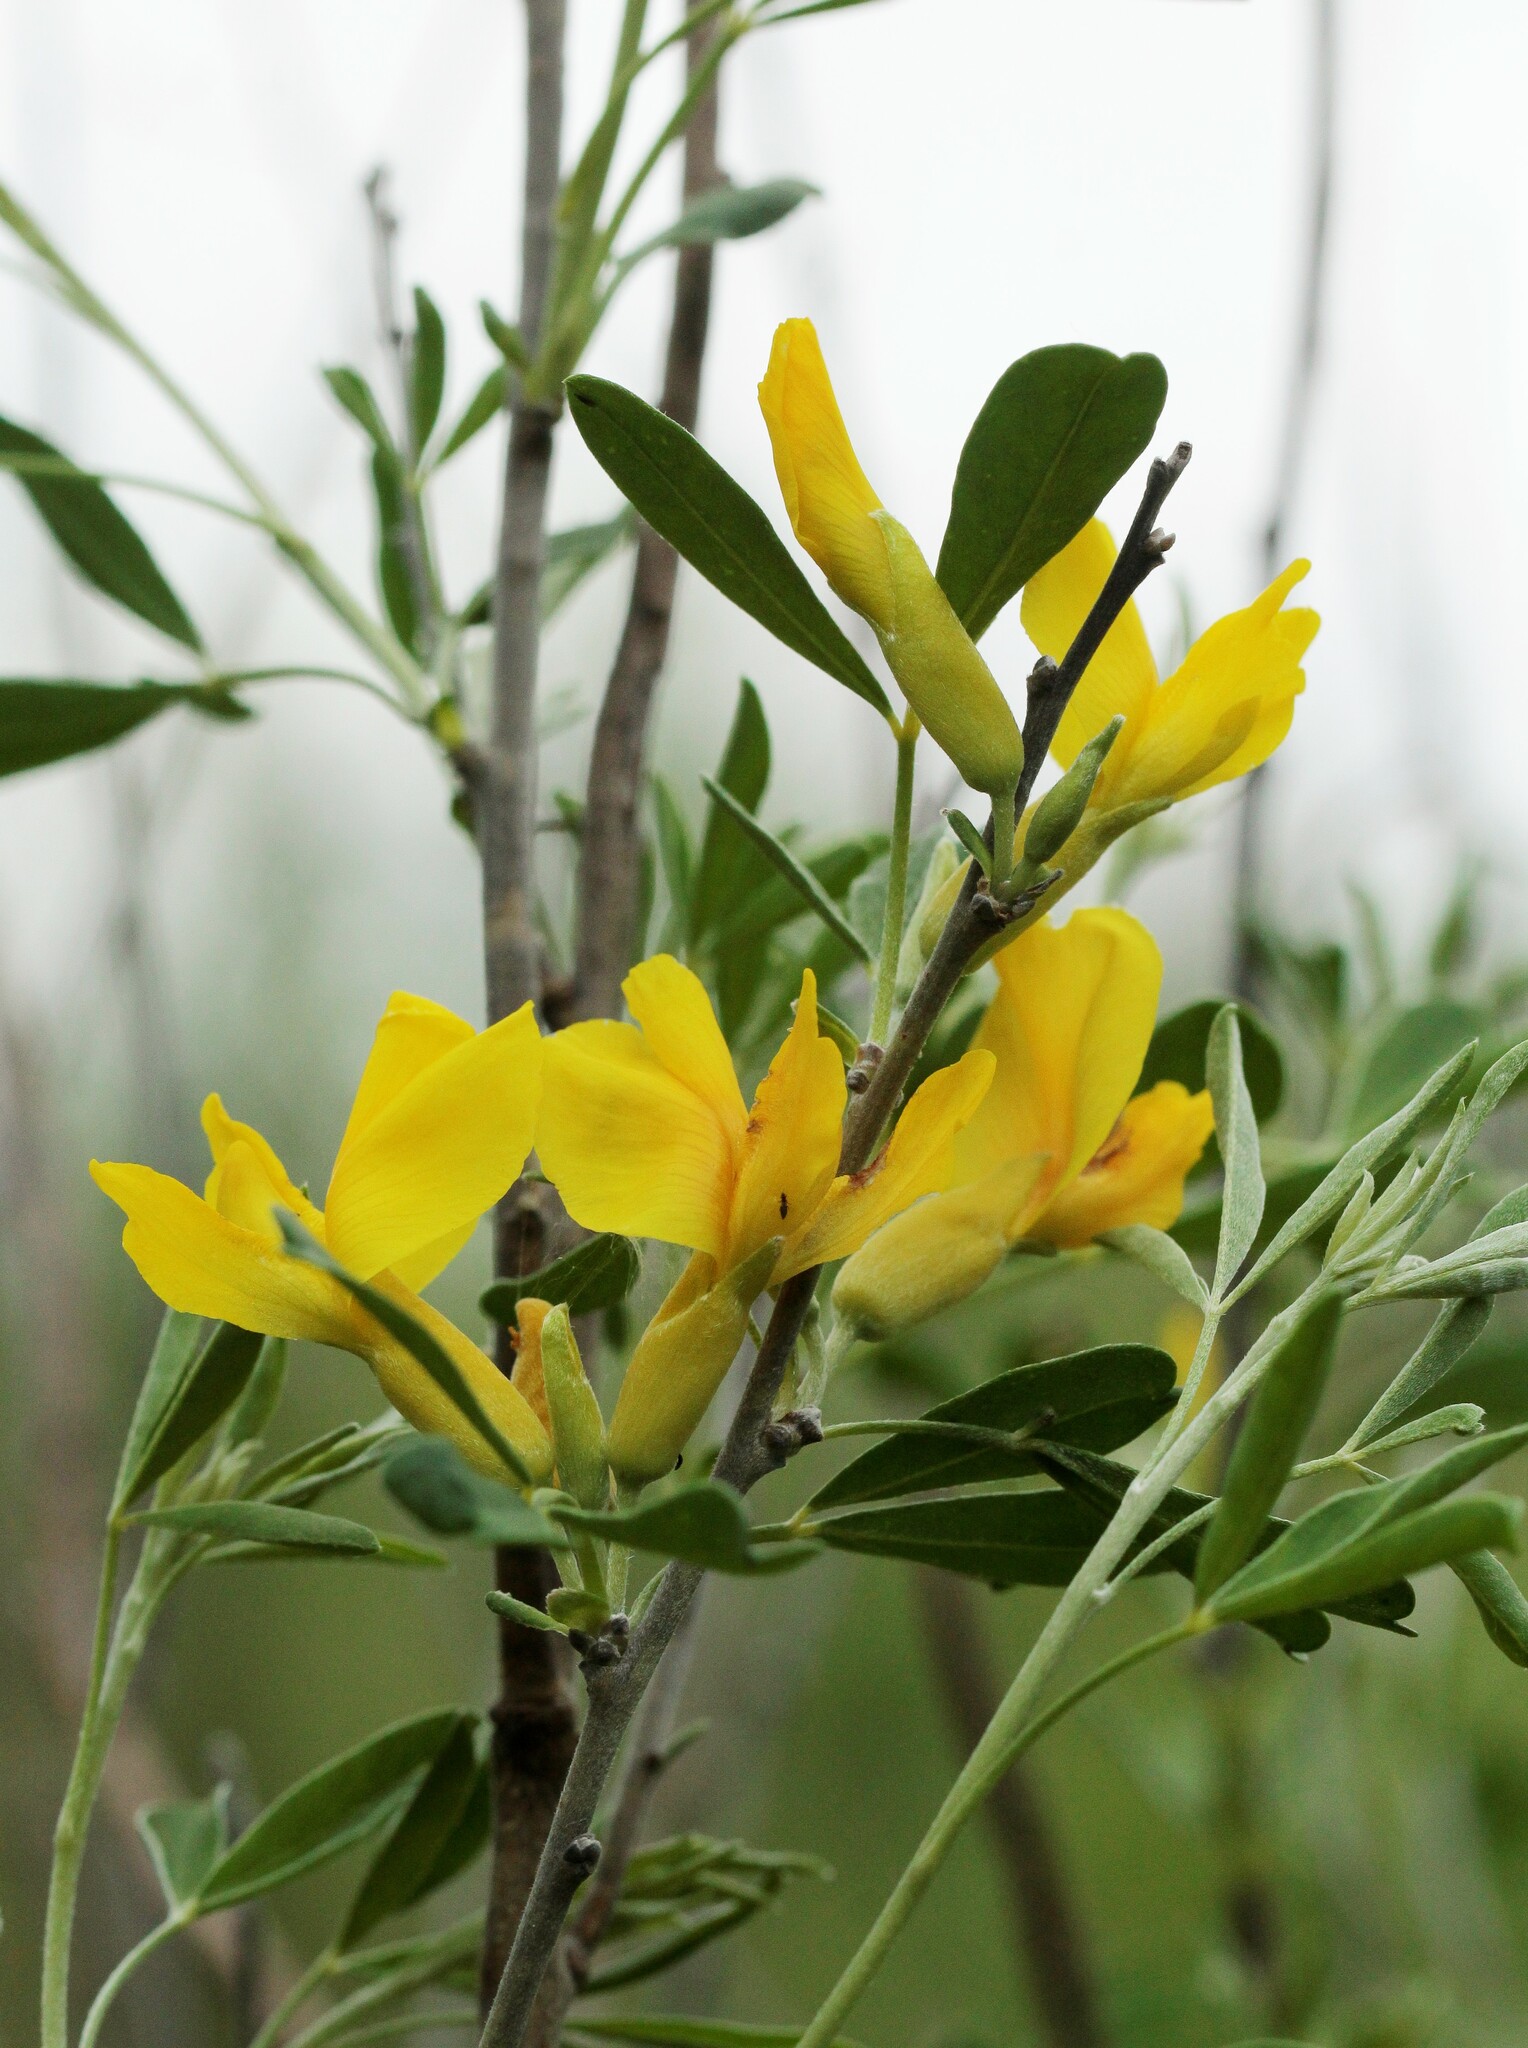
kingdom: Plantae
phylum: Tracheophyta
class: Magnoliopsida
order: Fabales
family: Fabaceae
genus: Chamaecytisus
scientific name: Chamaecytisus ruthenicus
